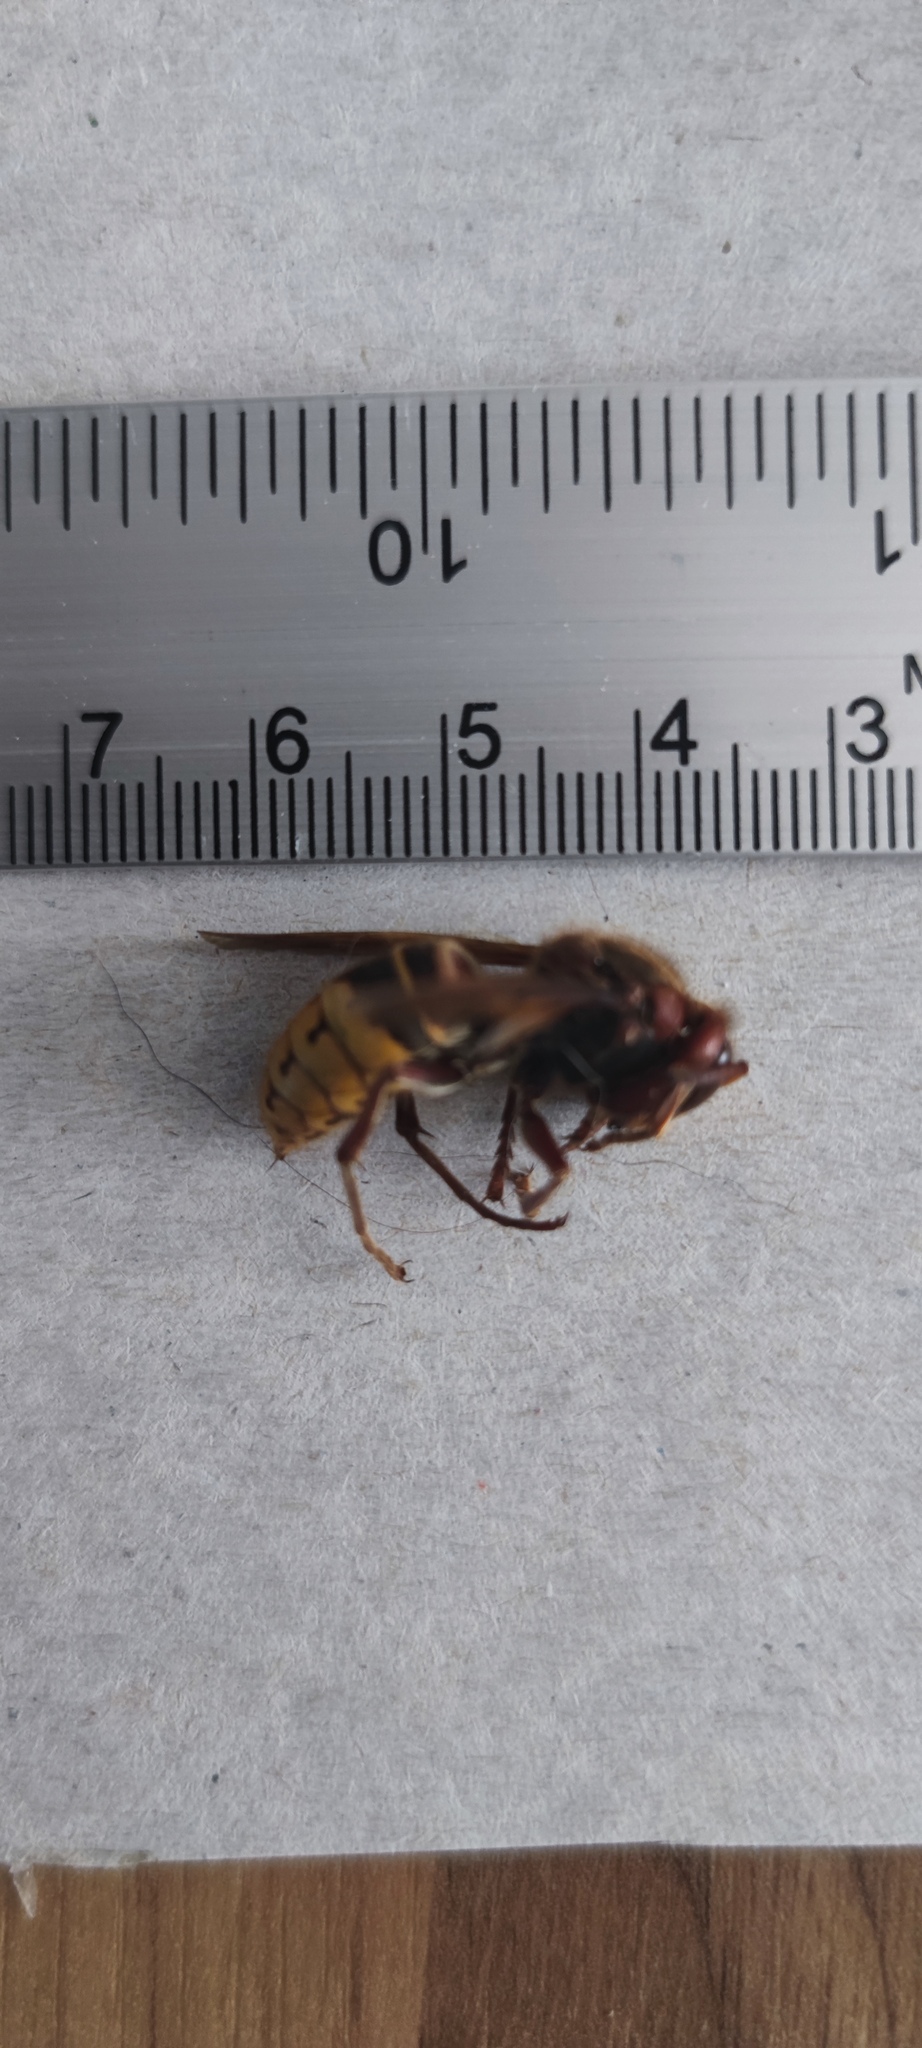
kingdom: Animalia
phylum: Arthropoda
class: Insecta
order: Hymenoptera
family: Vespidae
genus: Vespa
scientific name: Vespa crabro
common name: Hornet
